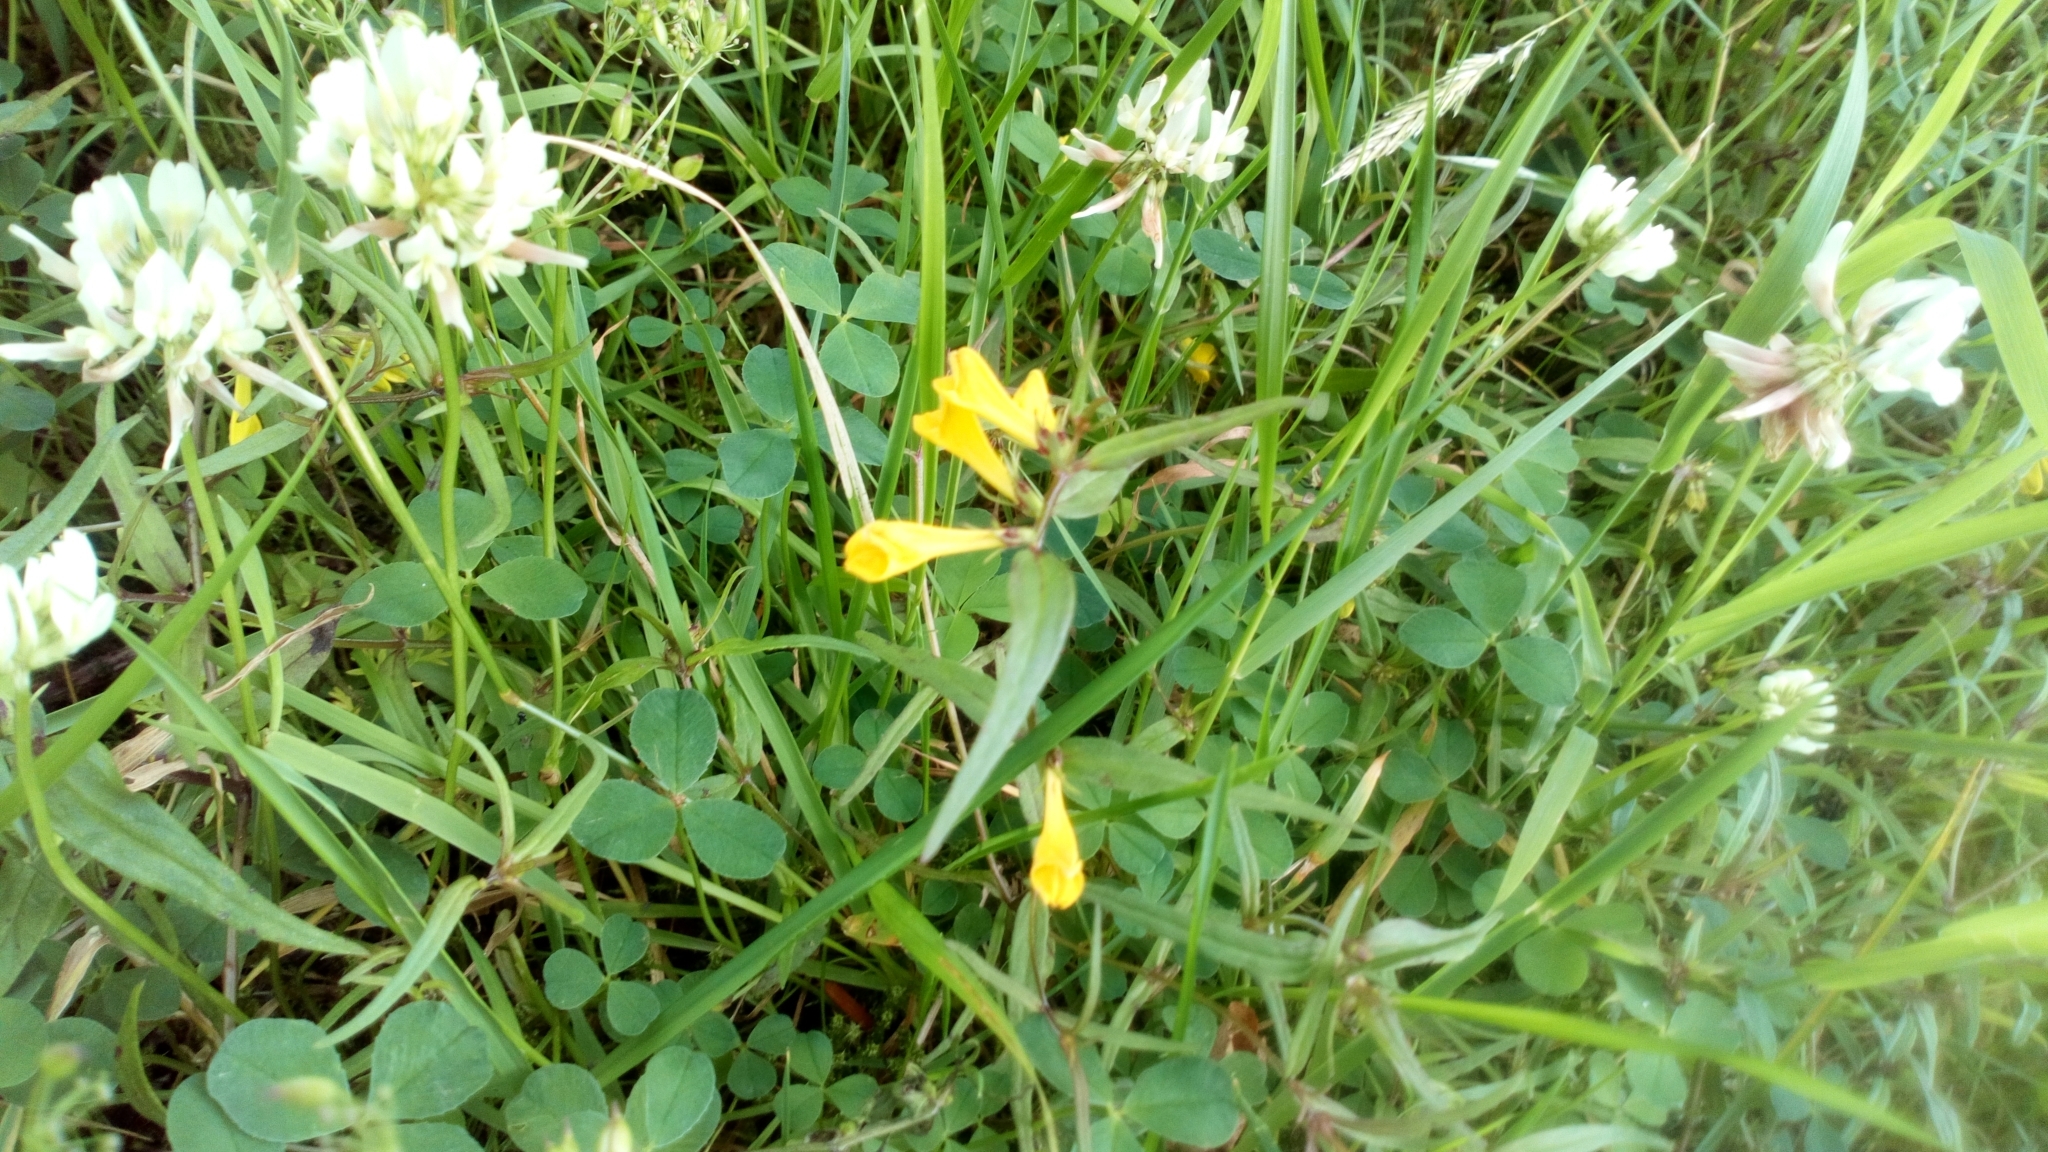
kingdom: Plantae
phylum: Tracheophyta
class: Magnoliopsida
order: Lamiales
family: Orobanchaceae
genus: Melampyrum
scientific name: Melampyrum pratense
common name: Common cow-wheat
